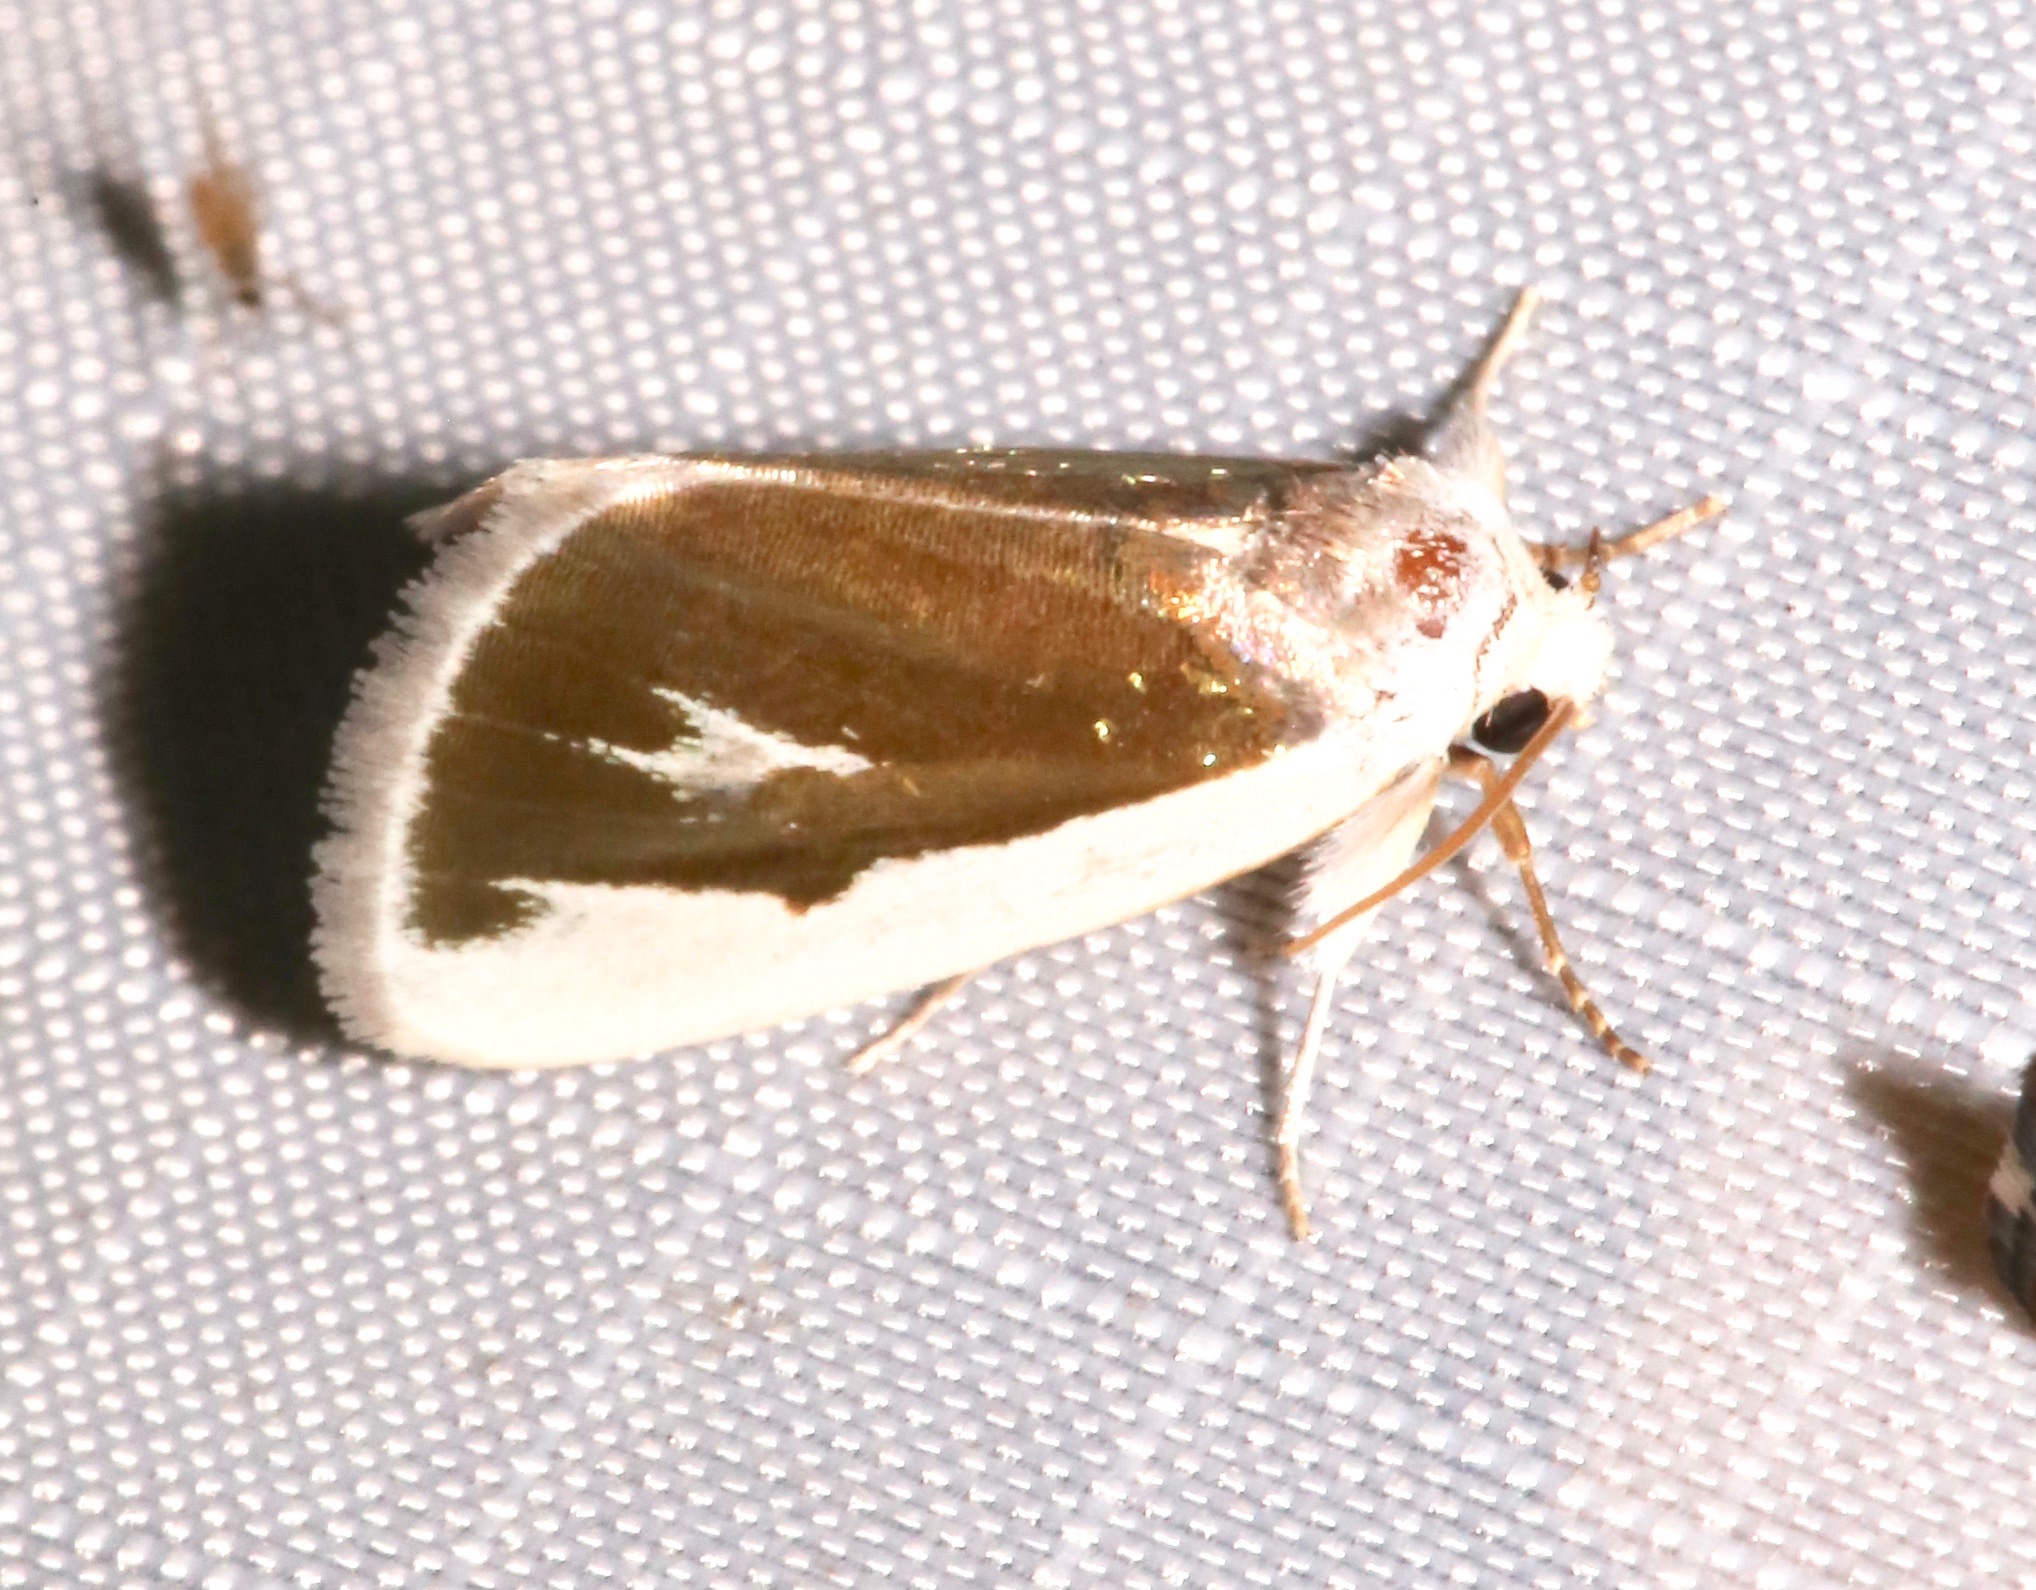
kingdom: Animalia
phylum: Arthropoda
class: Insecta
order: Lepidoptera
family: Noctuidae
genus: Neumoegenia
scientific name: Neumoegenia poetica
